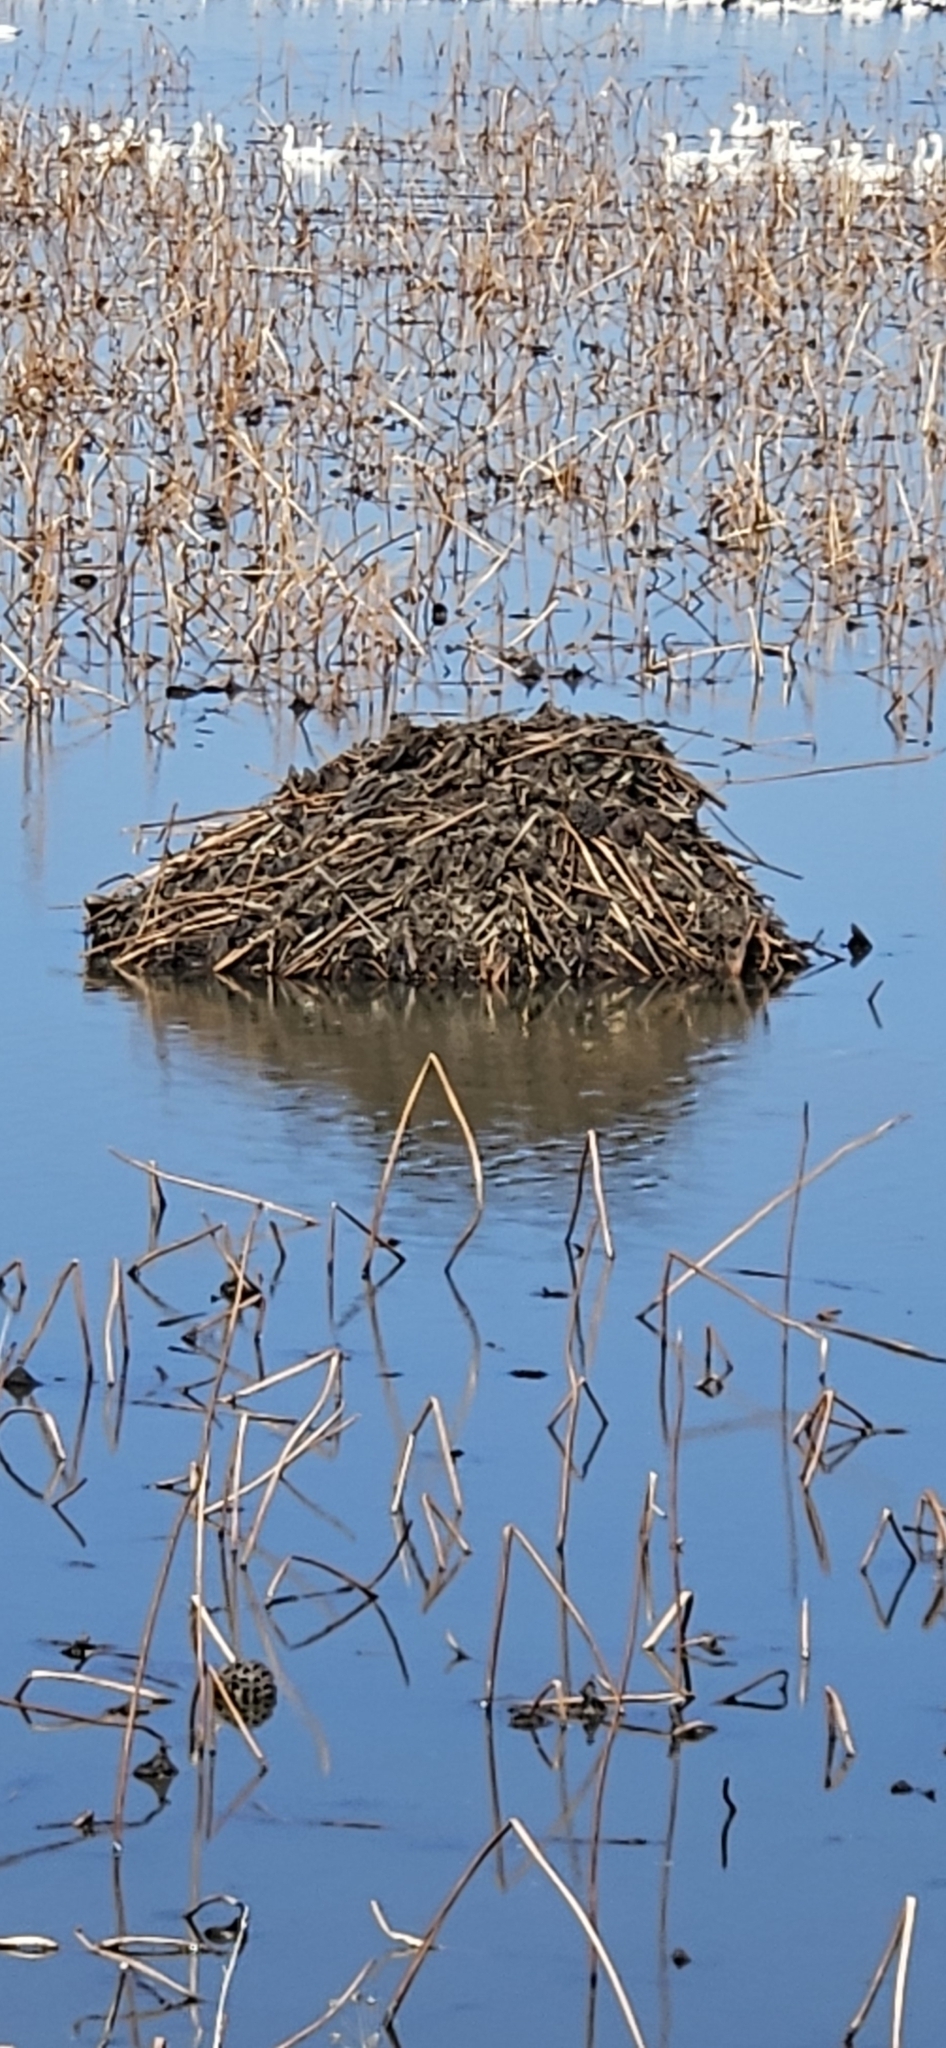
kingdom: Animalia
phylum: Chordata
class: Mammalia
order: Rodentia
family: Cricetidae
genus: Ondatra
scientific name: Ondatra zibethicus
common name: Muskrat
